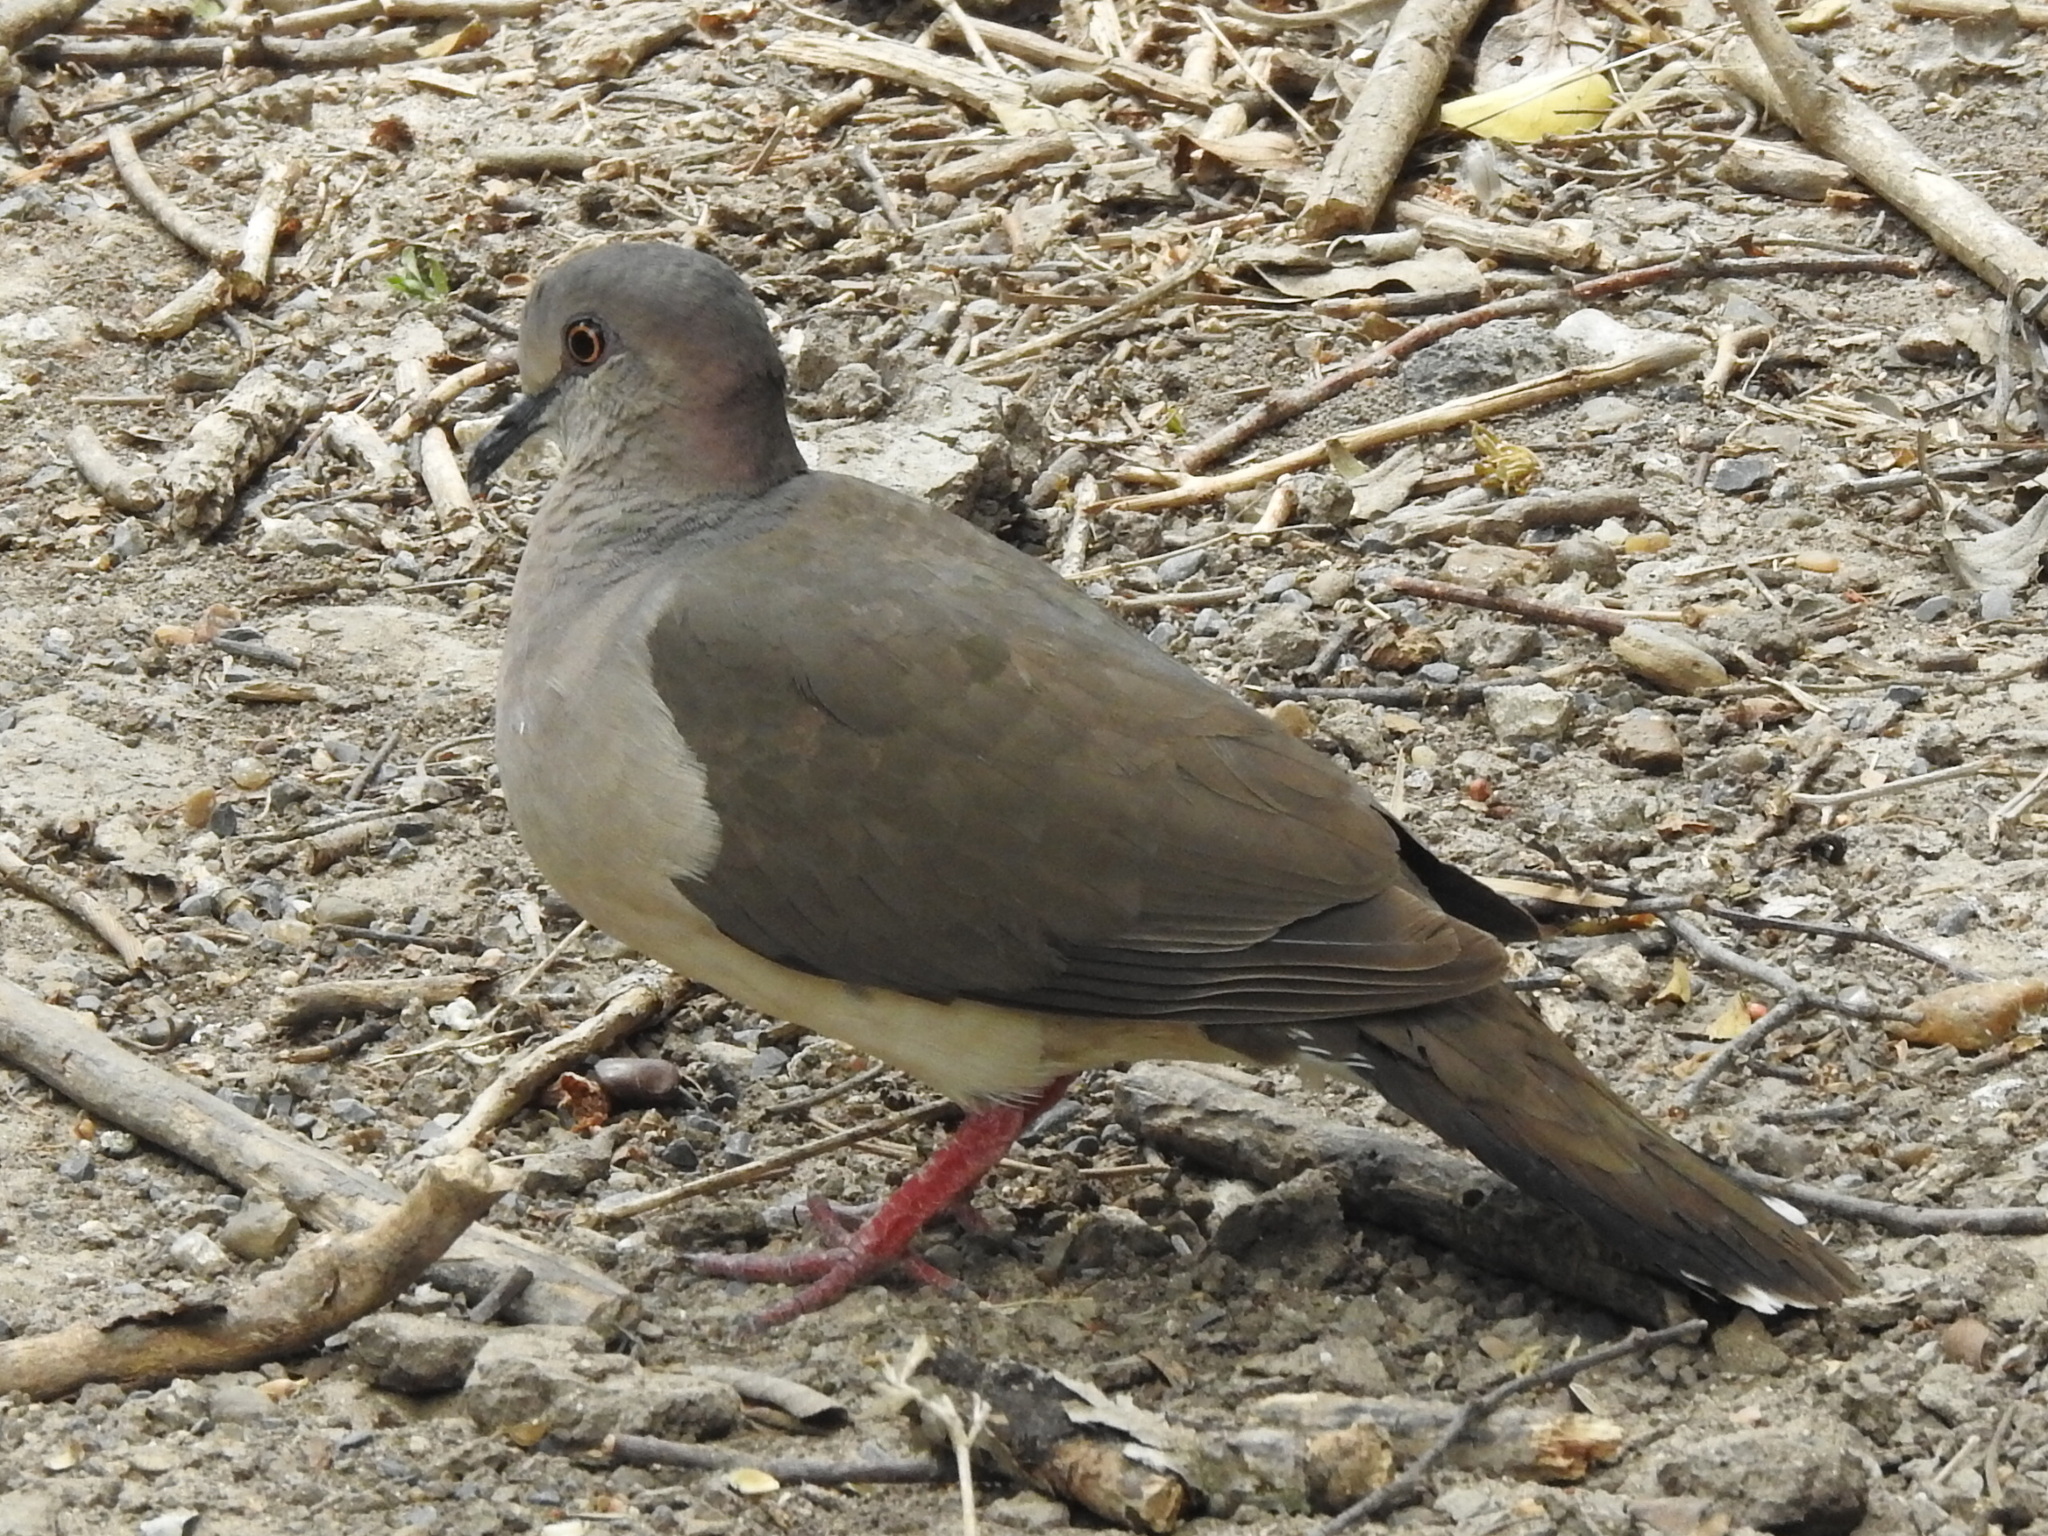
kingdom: Animalia
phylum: Chordata
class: Aves
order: Columbiformes
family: Columbidae
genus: Leptotila
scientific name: Leptotila verreauxi
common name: White-tipped dove
